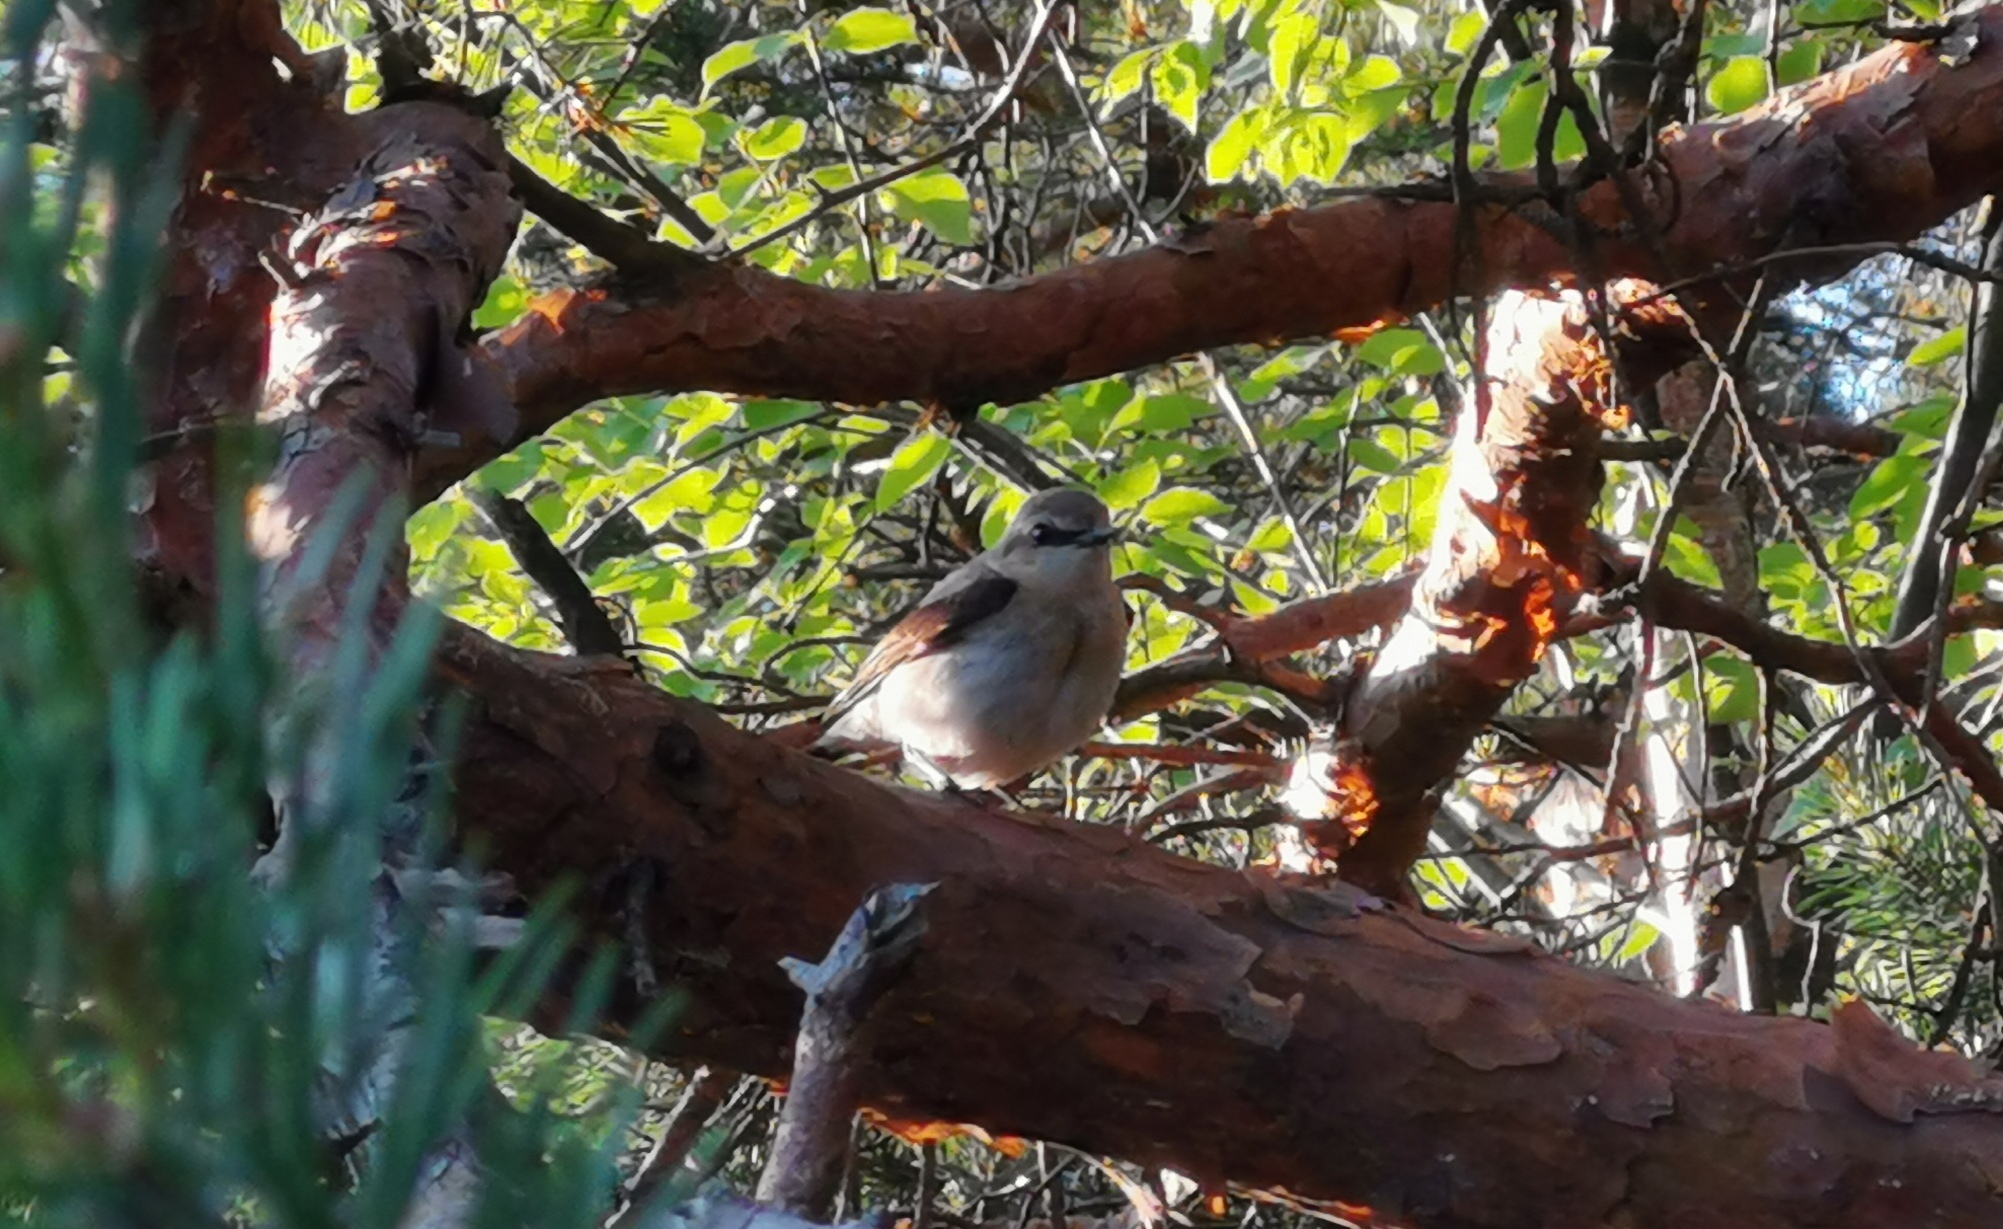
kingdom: Animalia
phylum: Chordata
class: Aves
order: Passeriformes
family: Laniidae
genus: Lanius
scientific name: Lanius collurio
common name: Red-backed shrike
